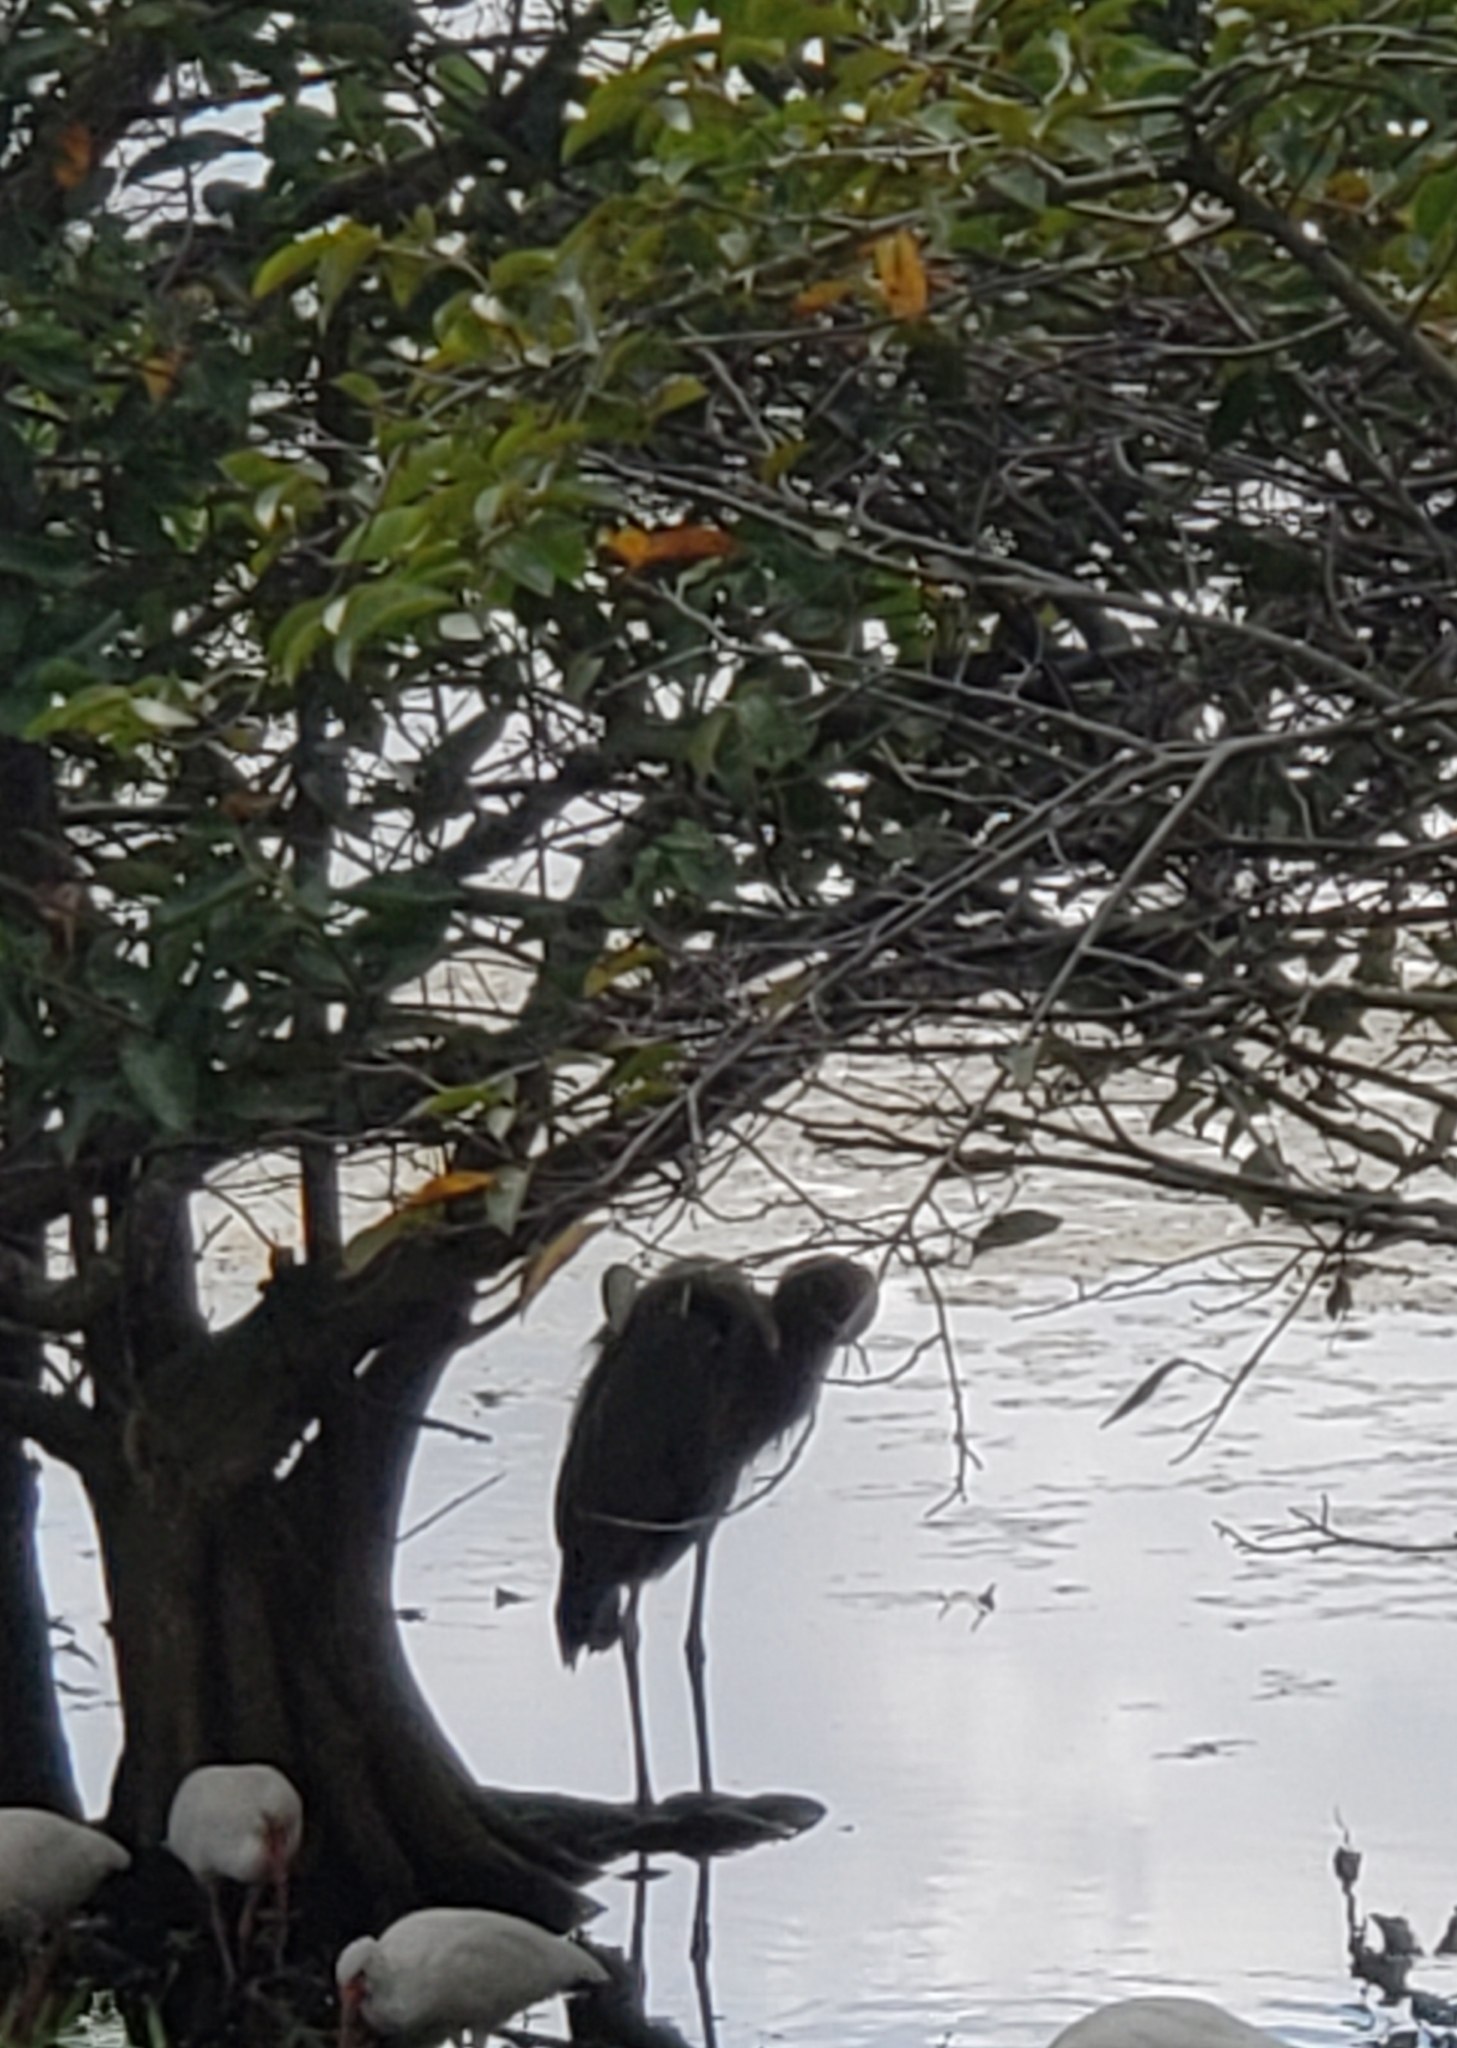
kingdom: Animalia
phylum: Chordata
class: Aves
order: Pelecaniformes
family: Ardeidae
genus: Ardea
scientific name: Ardea herodias
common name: Great blue heron
